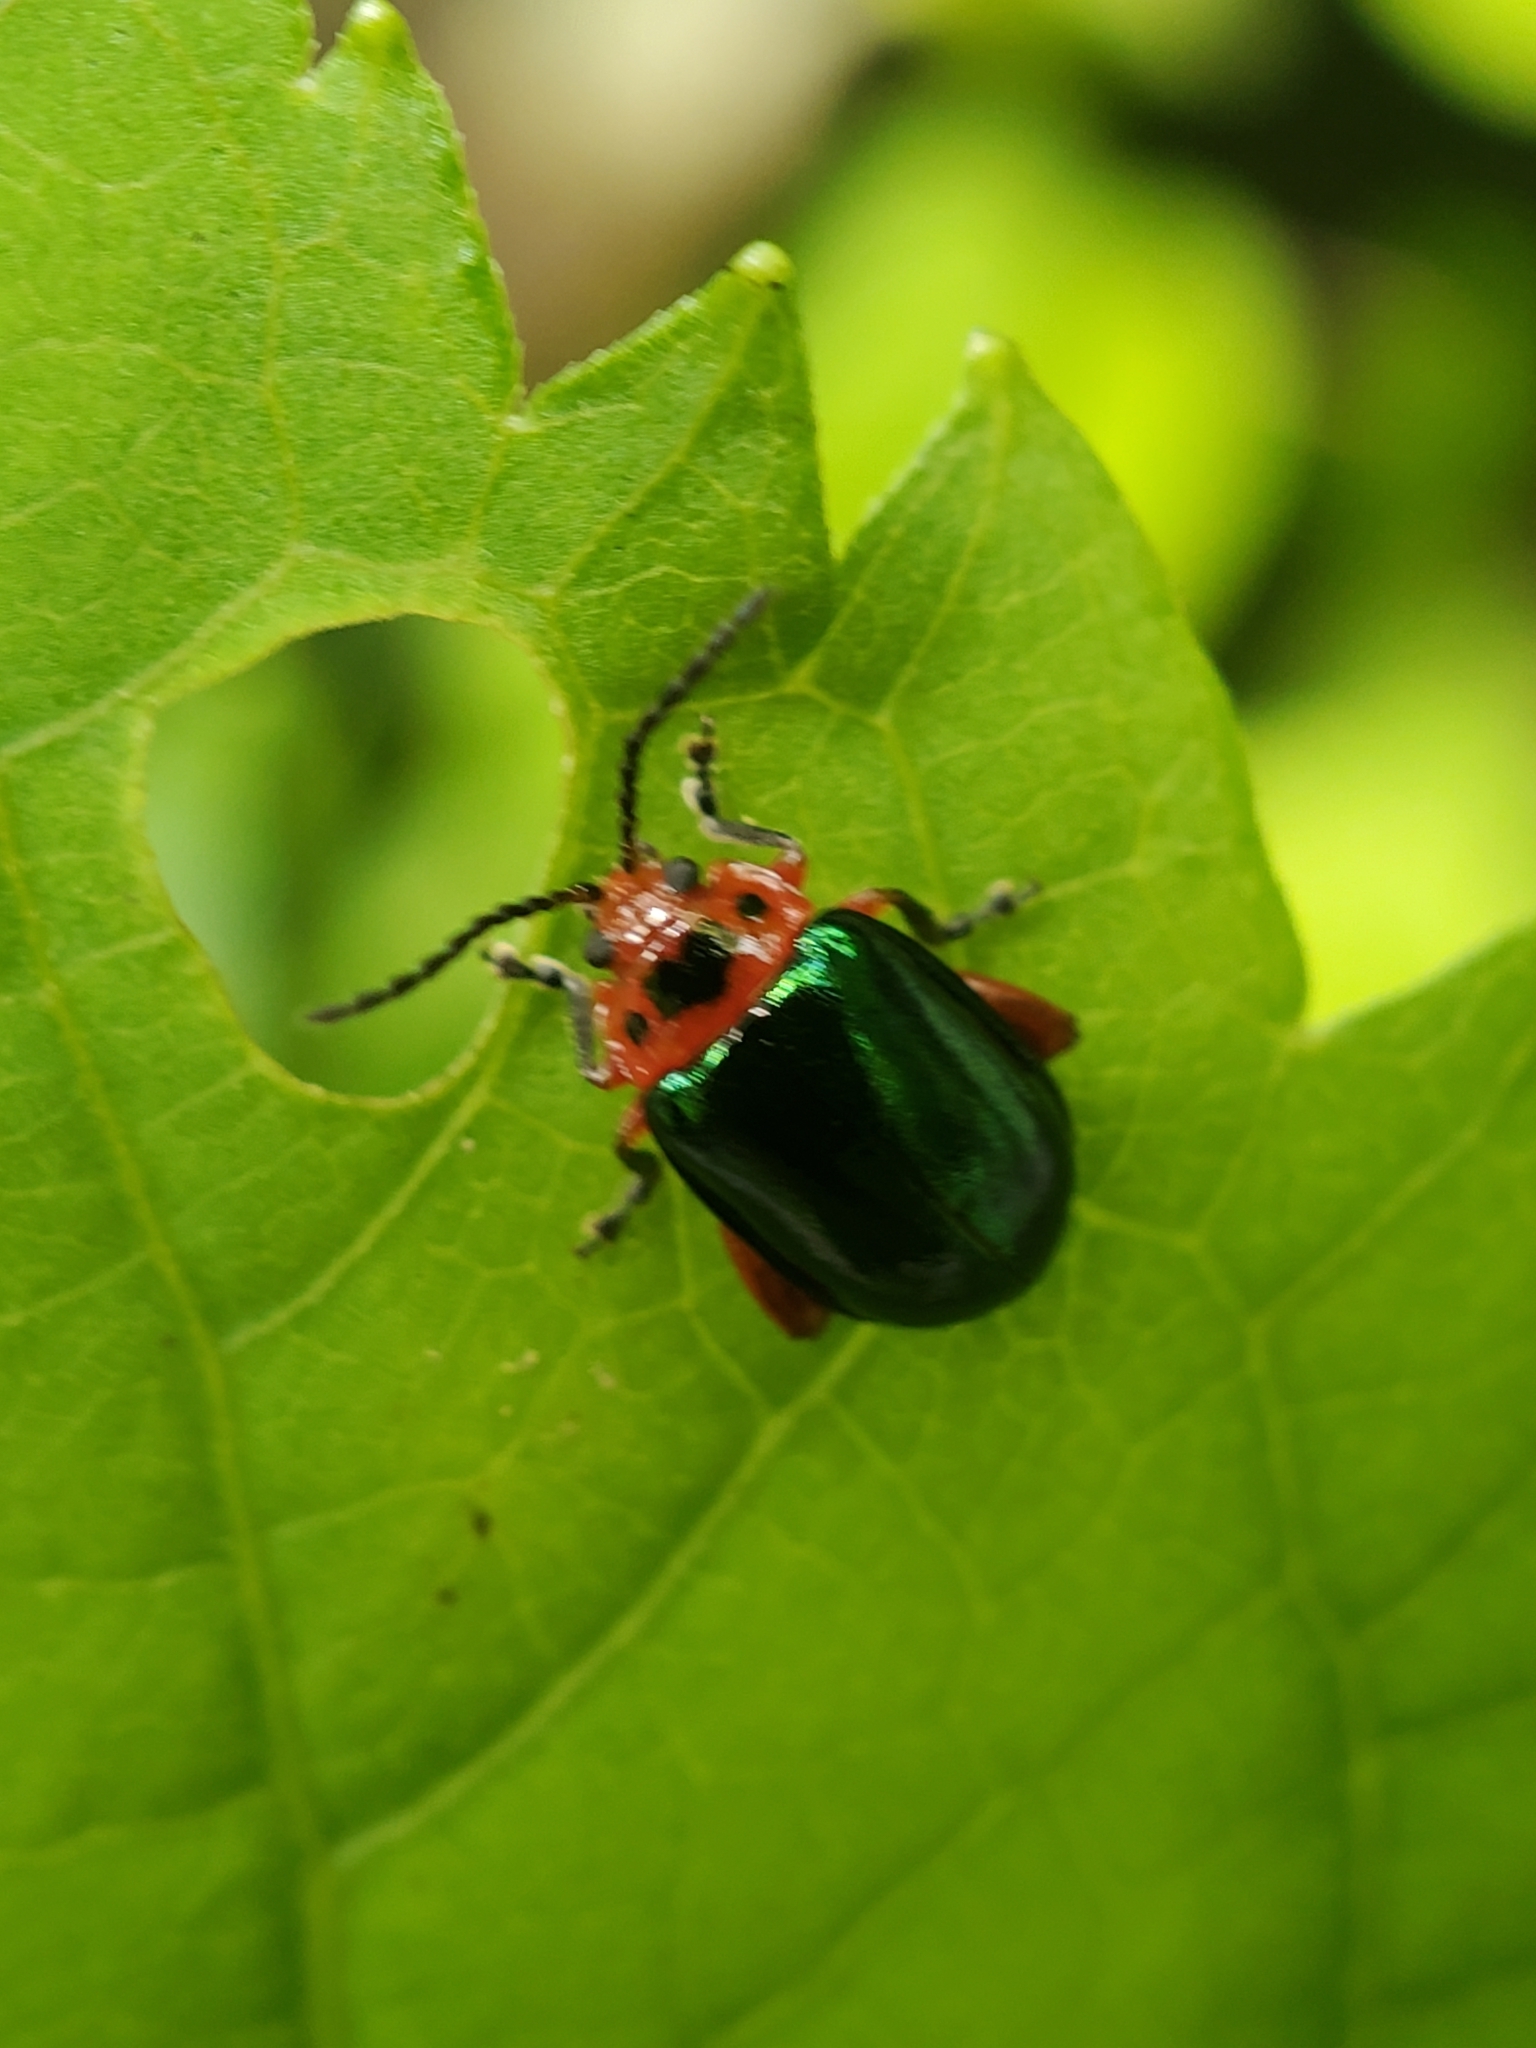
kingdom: Animalia
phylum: Arthropoda
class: Insecta
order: Coleoptera
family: Chrysomelidae
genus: Kuschelina
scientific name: Kuschelina gibbitarsa
